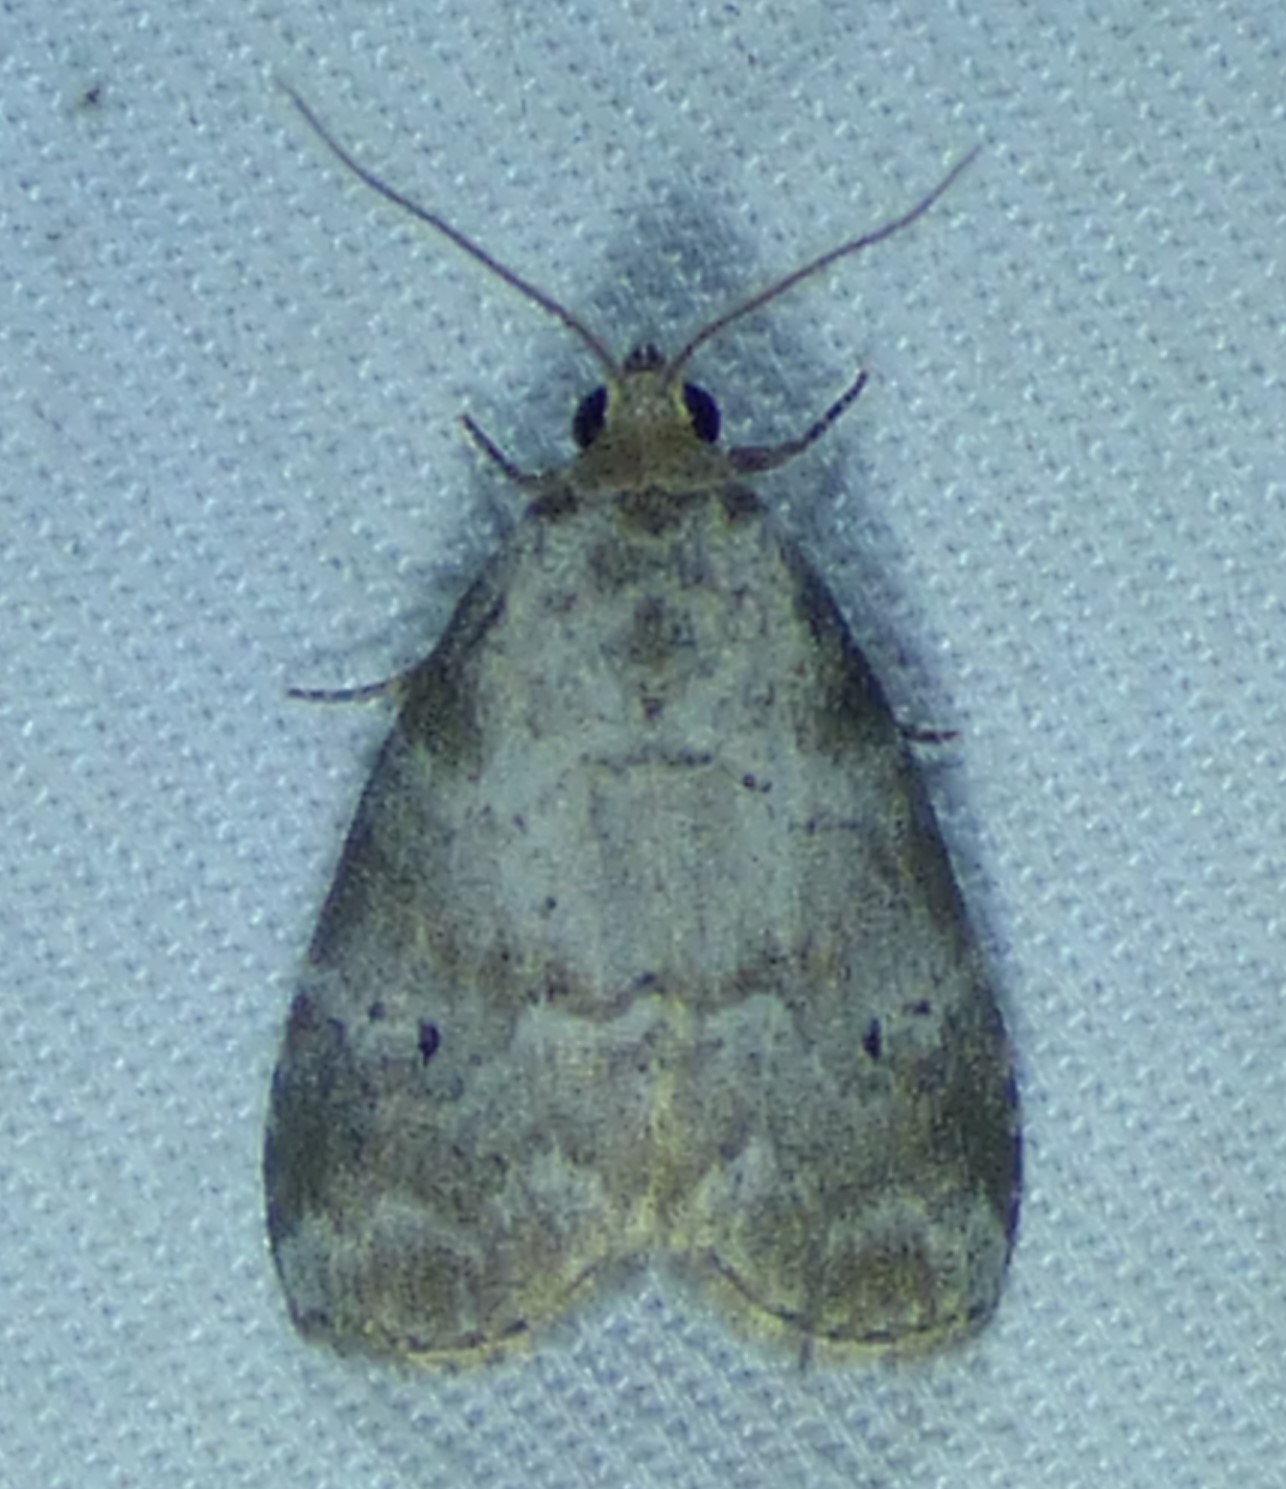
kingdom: Animalia
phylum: Arthropoda
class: Insecta
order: Lepidoptera
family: Erebidae
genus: Hyperstrotia
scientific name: Hyperstrotia pervertens
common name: Dotted graylet
